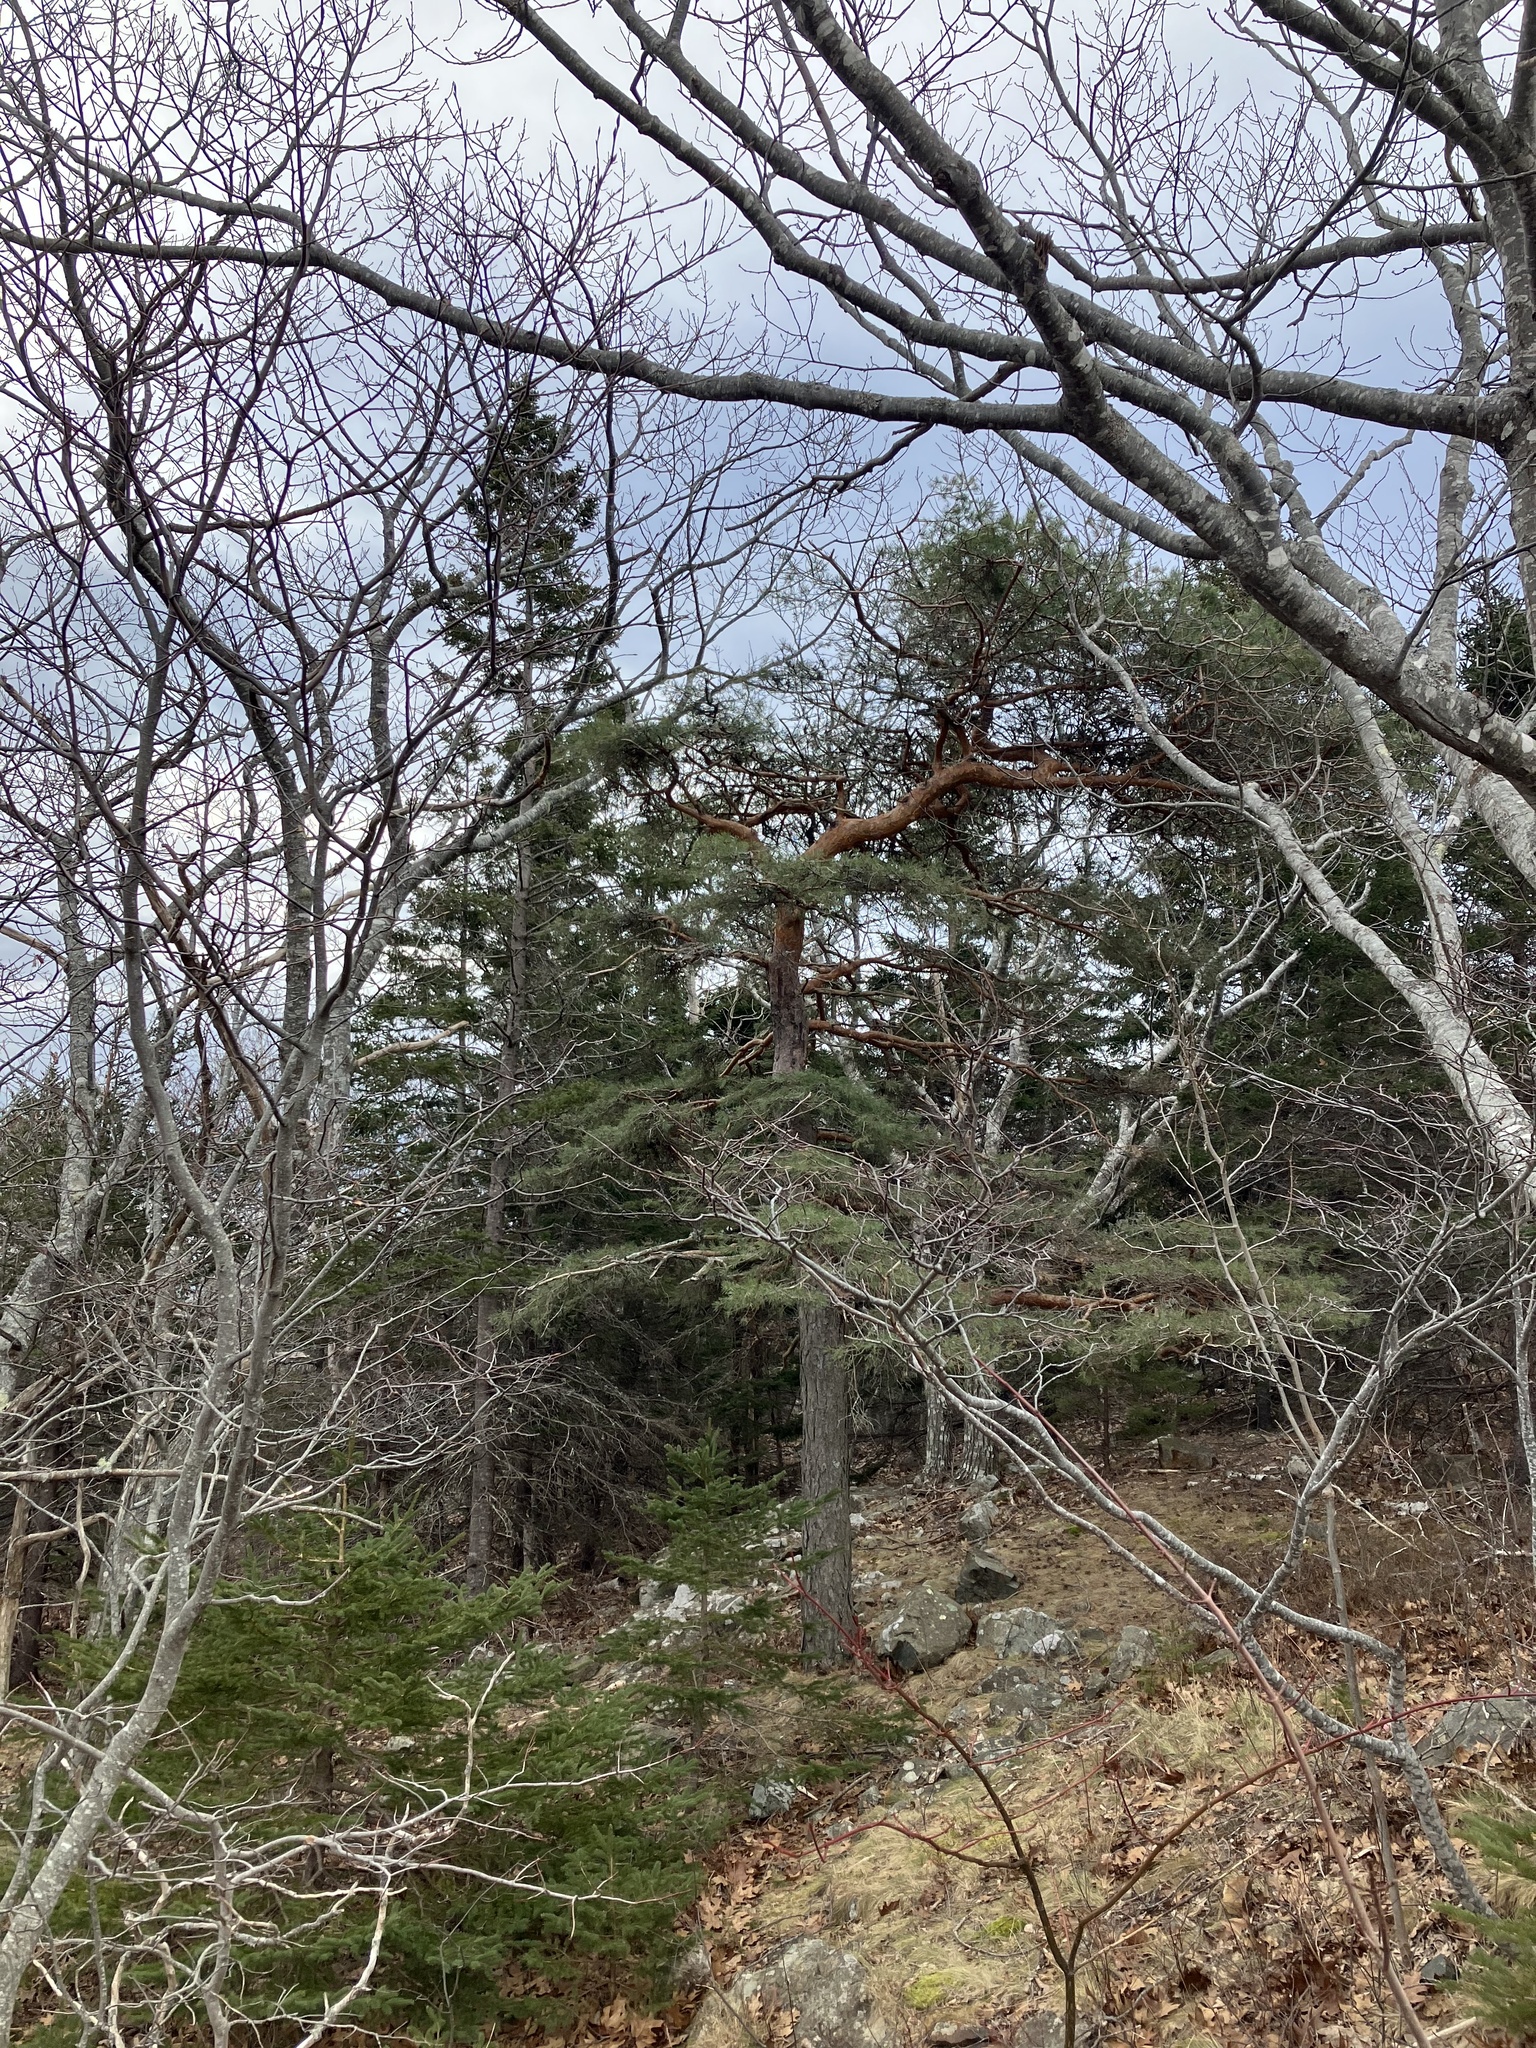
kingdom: Plantae
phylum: Tracheophyta
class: Pinopsida
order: Pinales
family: Pinaceae
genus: Pinus
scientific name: Pinus sylvestris
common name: Scots pine
